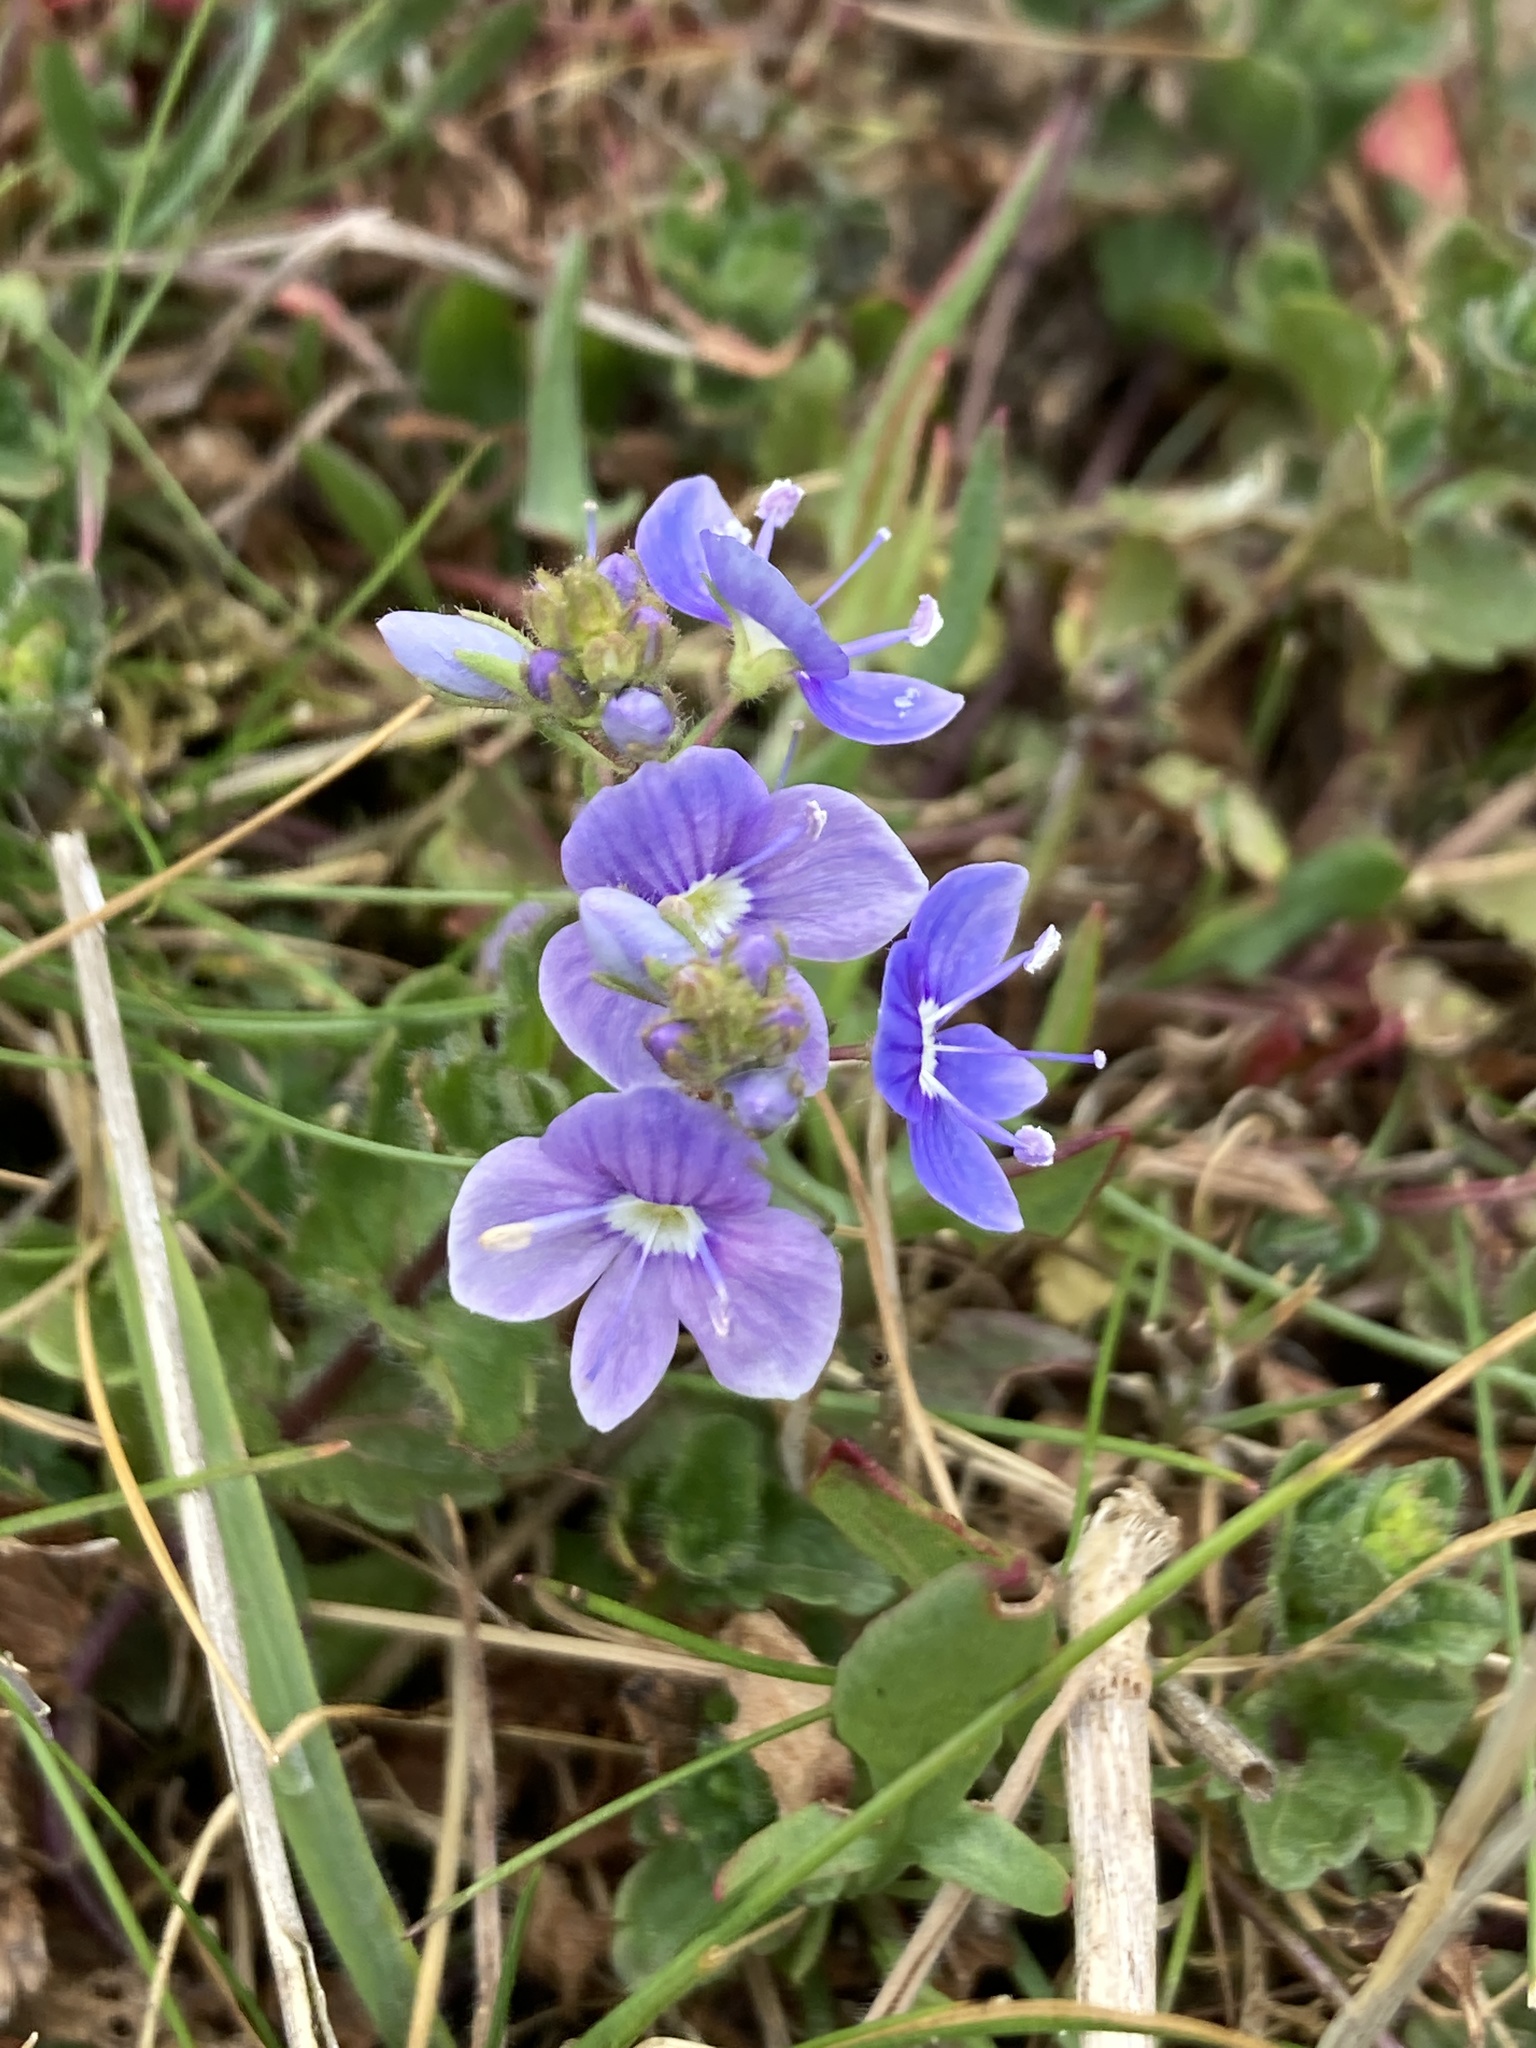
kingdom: Plantae
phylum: Tracheophyta
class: Magnoliopsida
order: Lamiales
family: Plantaginaceae
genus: Veronica
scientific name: Veronica chamaedrys
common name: Germander speedwell
